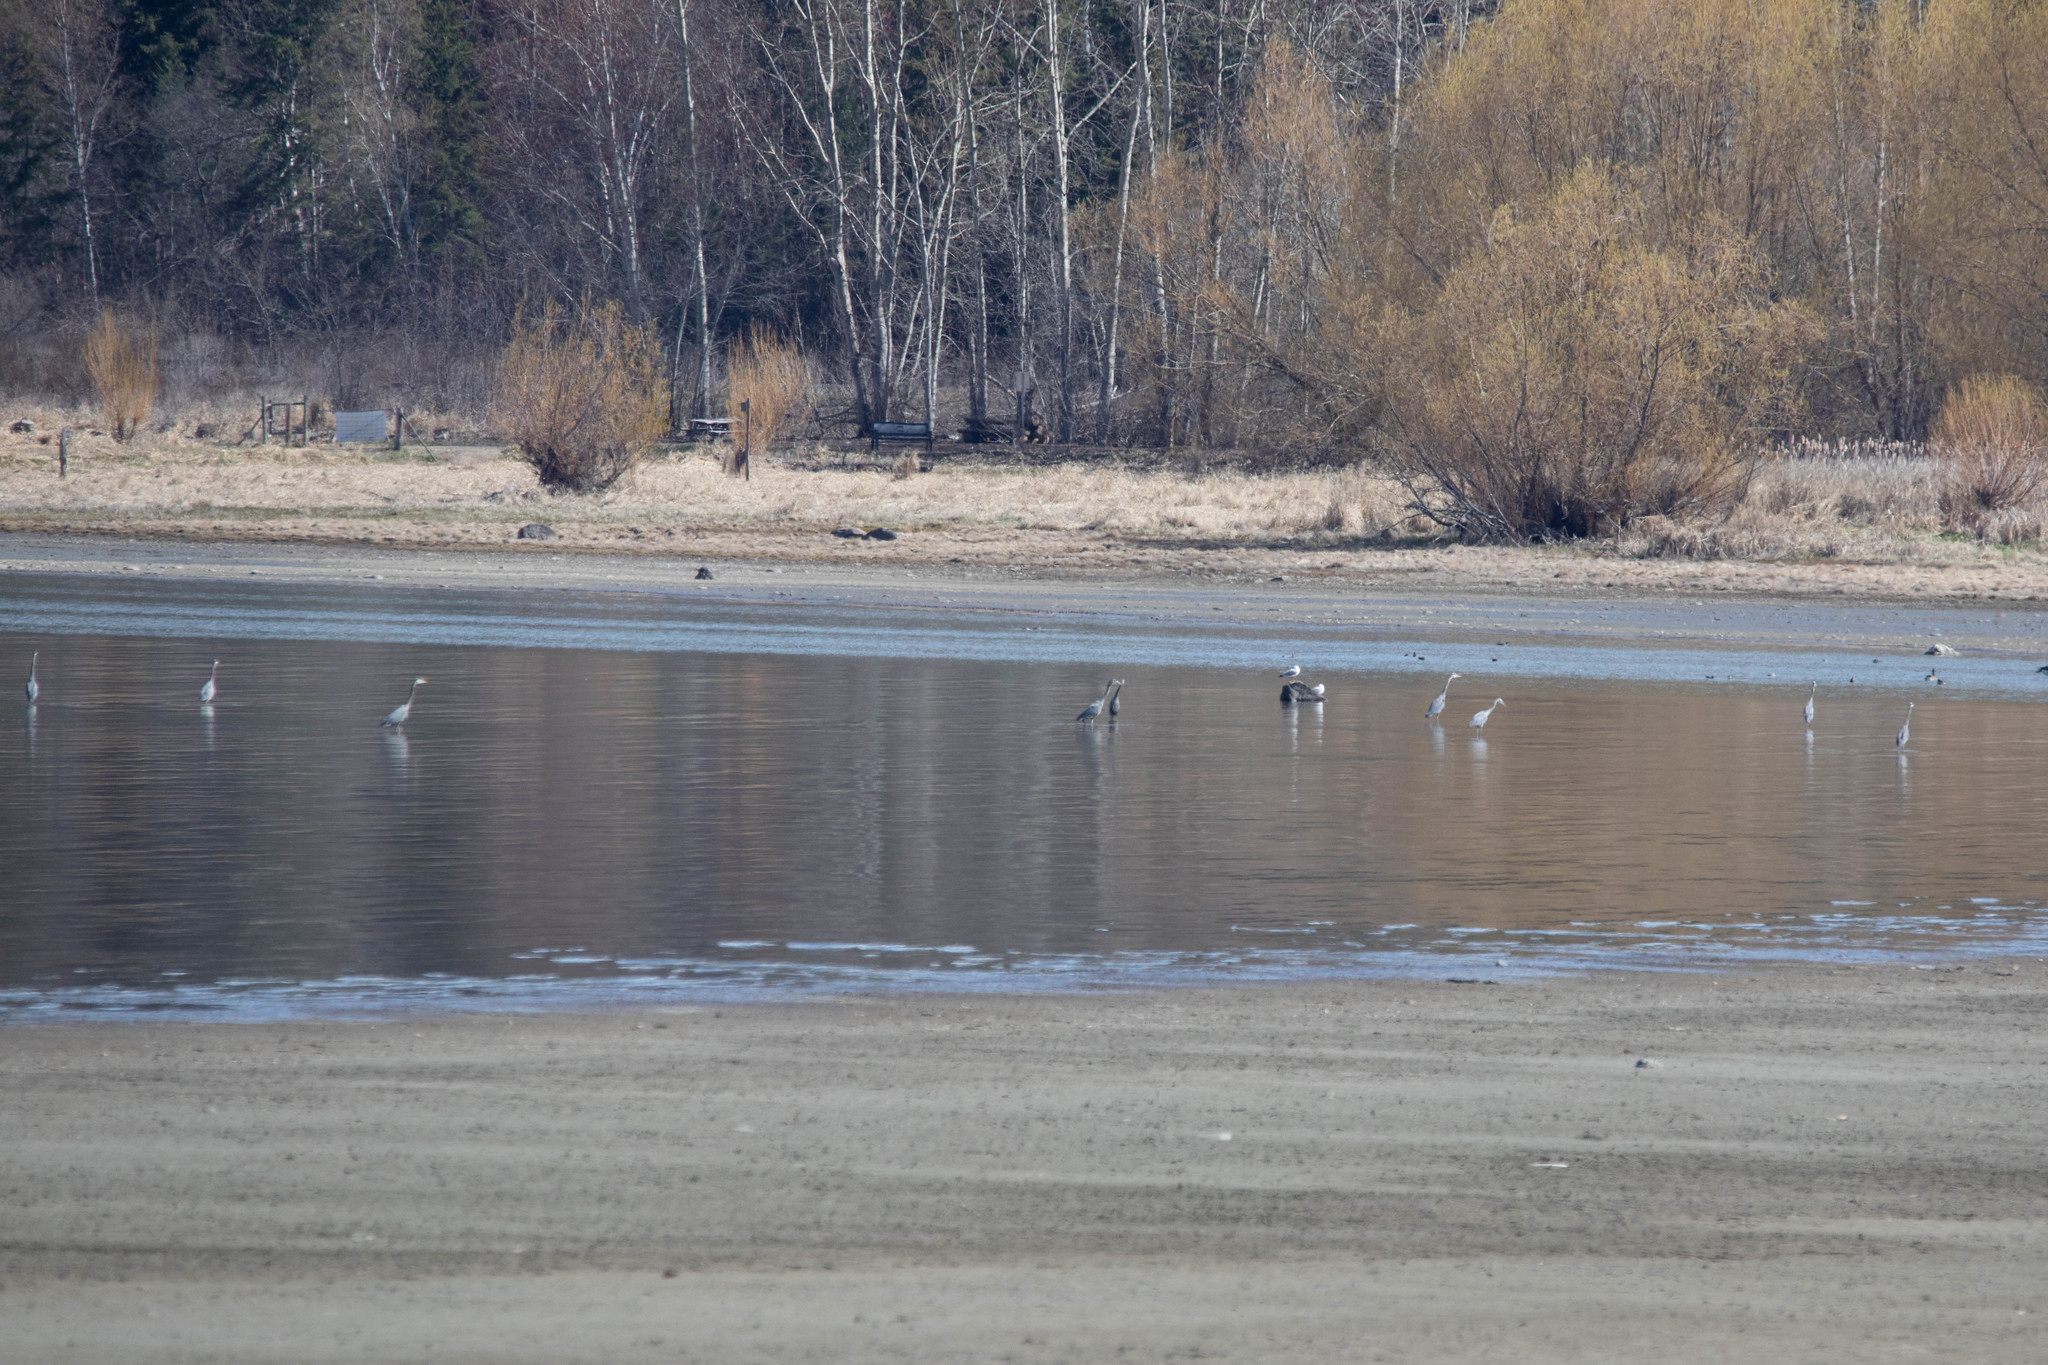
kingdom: Animalia
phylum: Chordata
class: Aves
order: Pelecaniformes
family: Ardeidae
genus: Ardea
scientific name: Ardea herodias
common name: Great blue heron
